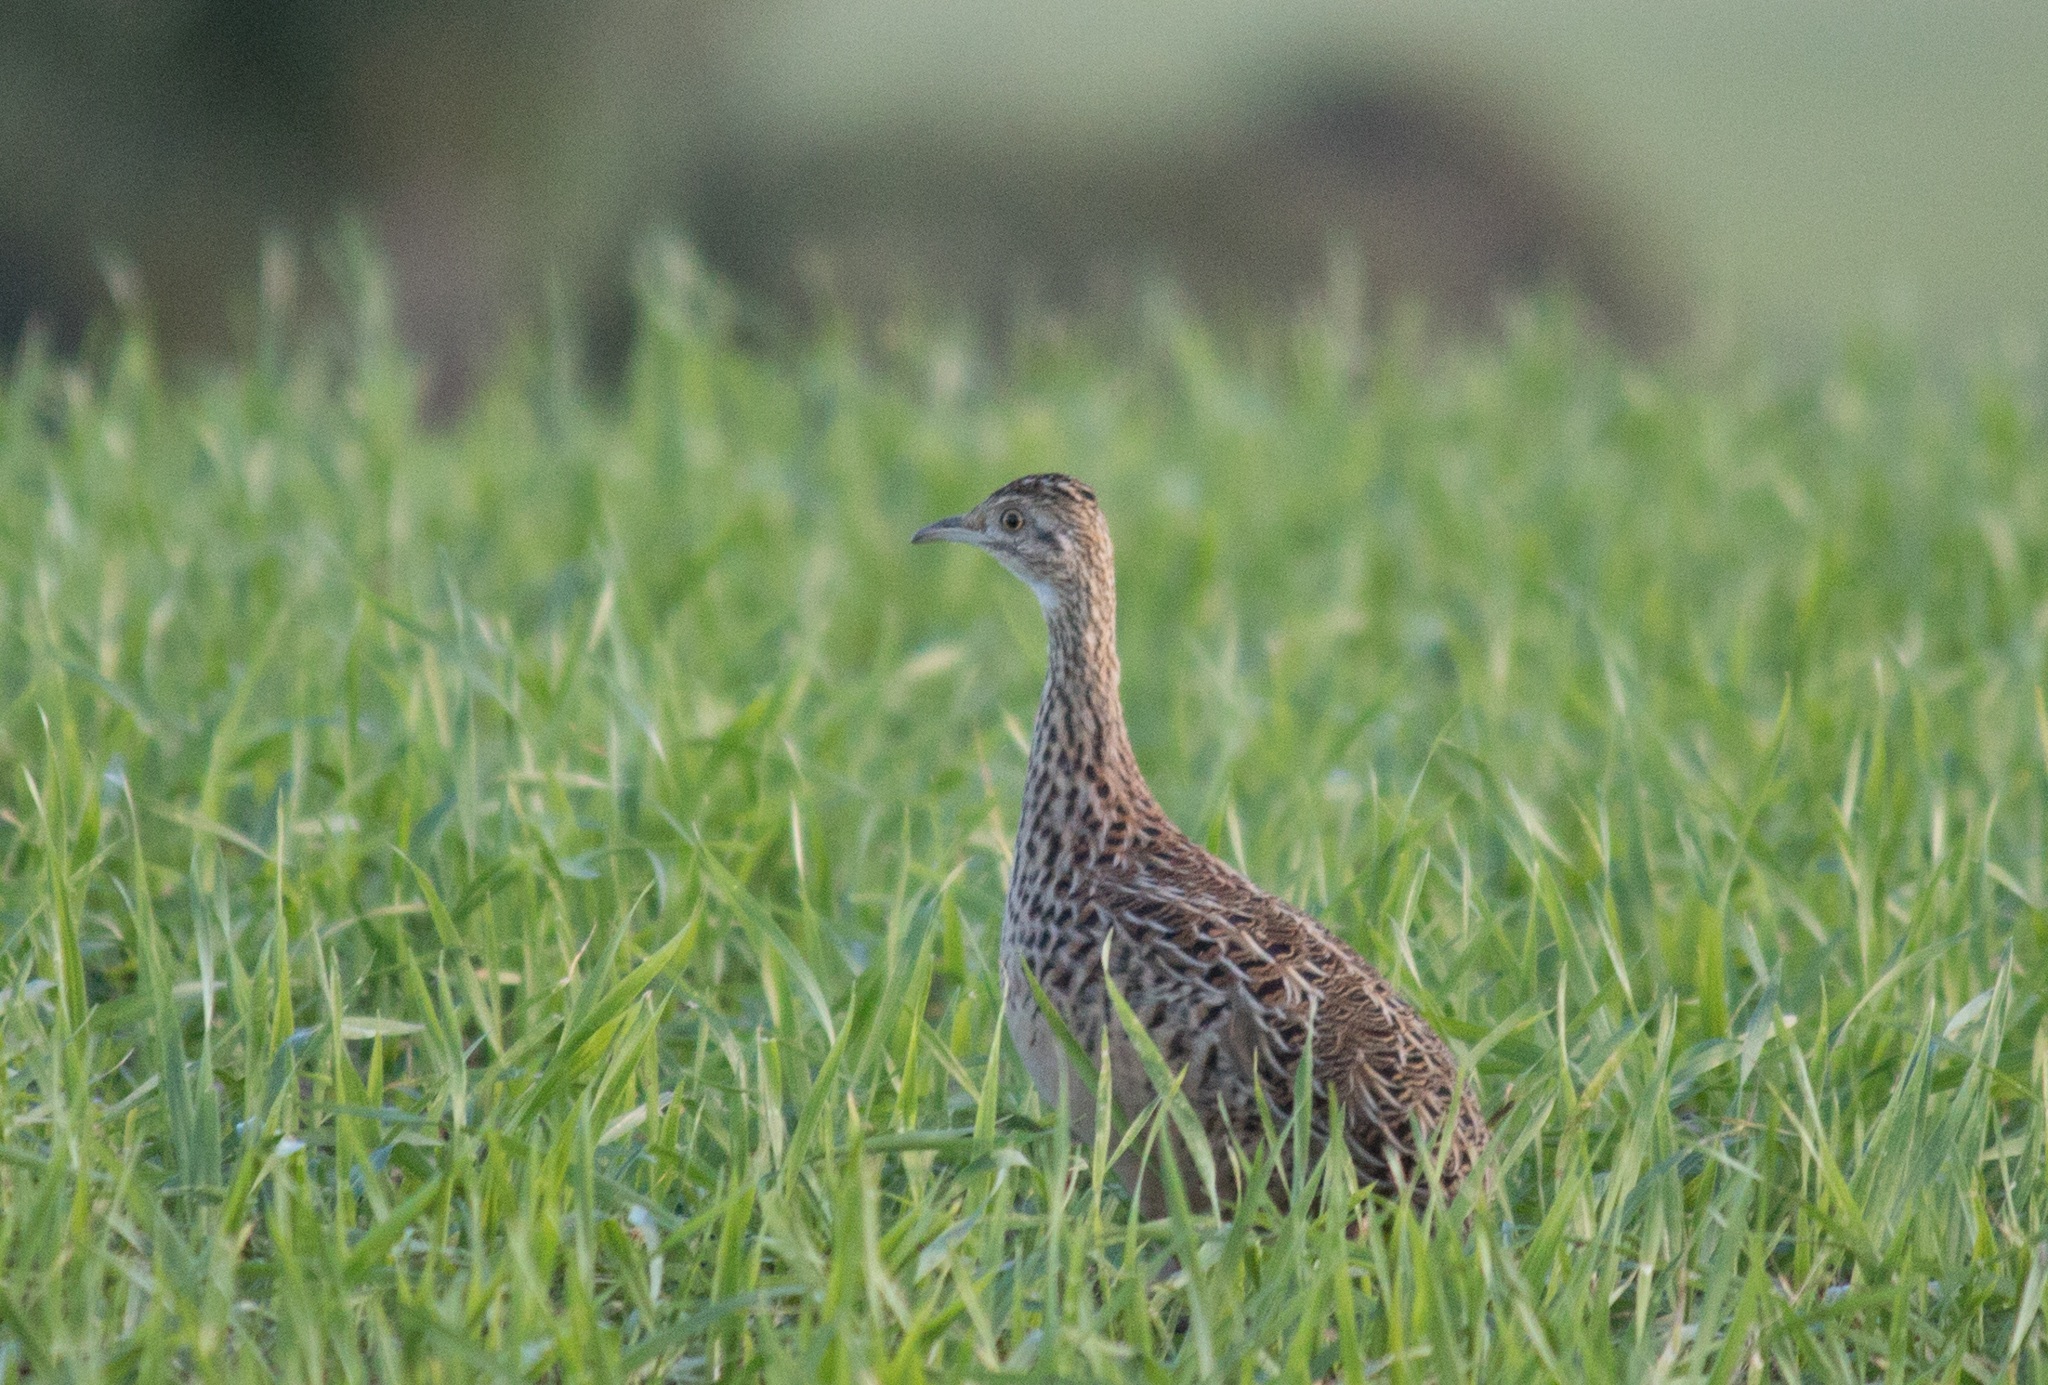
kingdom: Animalia
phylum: Chordata
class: Aves
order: Tinamiformes
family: Tinamidae
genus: Nothura
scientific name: Nothura maculosa
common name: Spotted nothura
